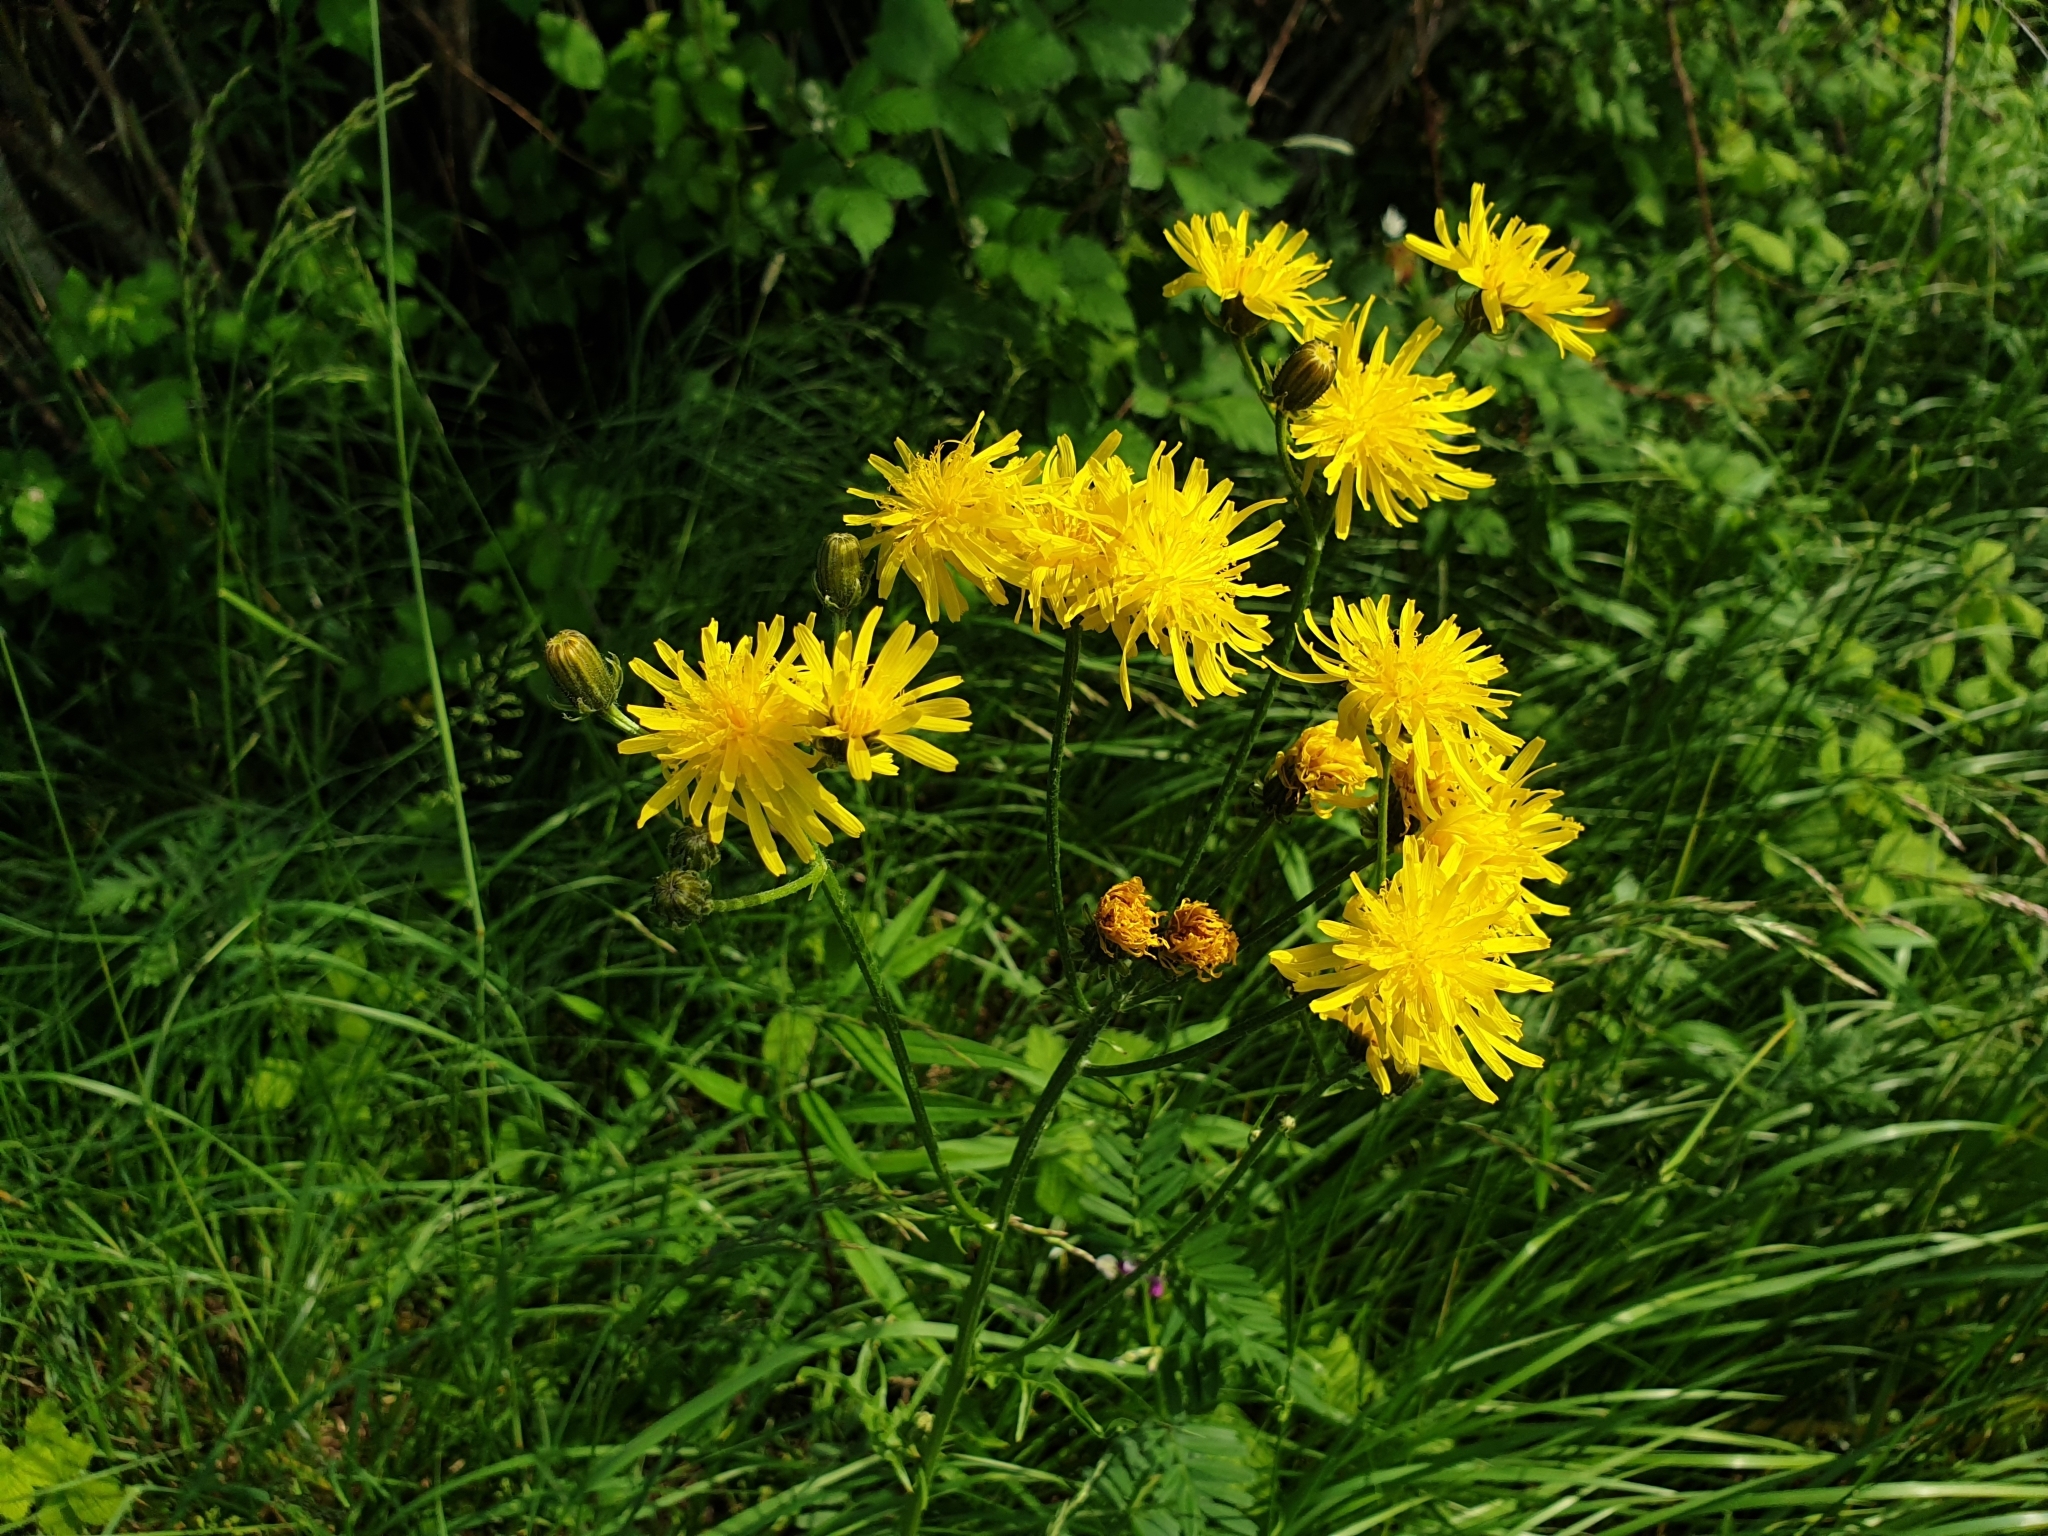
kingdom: Plantae
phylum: Tracheophyta
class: Magnoliopsida
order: Asterales
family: Asteraceae
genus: Crepis
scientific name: Crepis biennis
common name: Rough hawk's-beard
